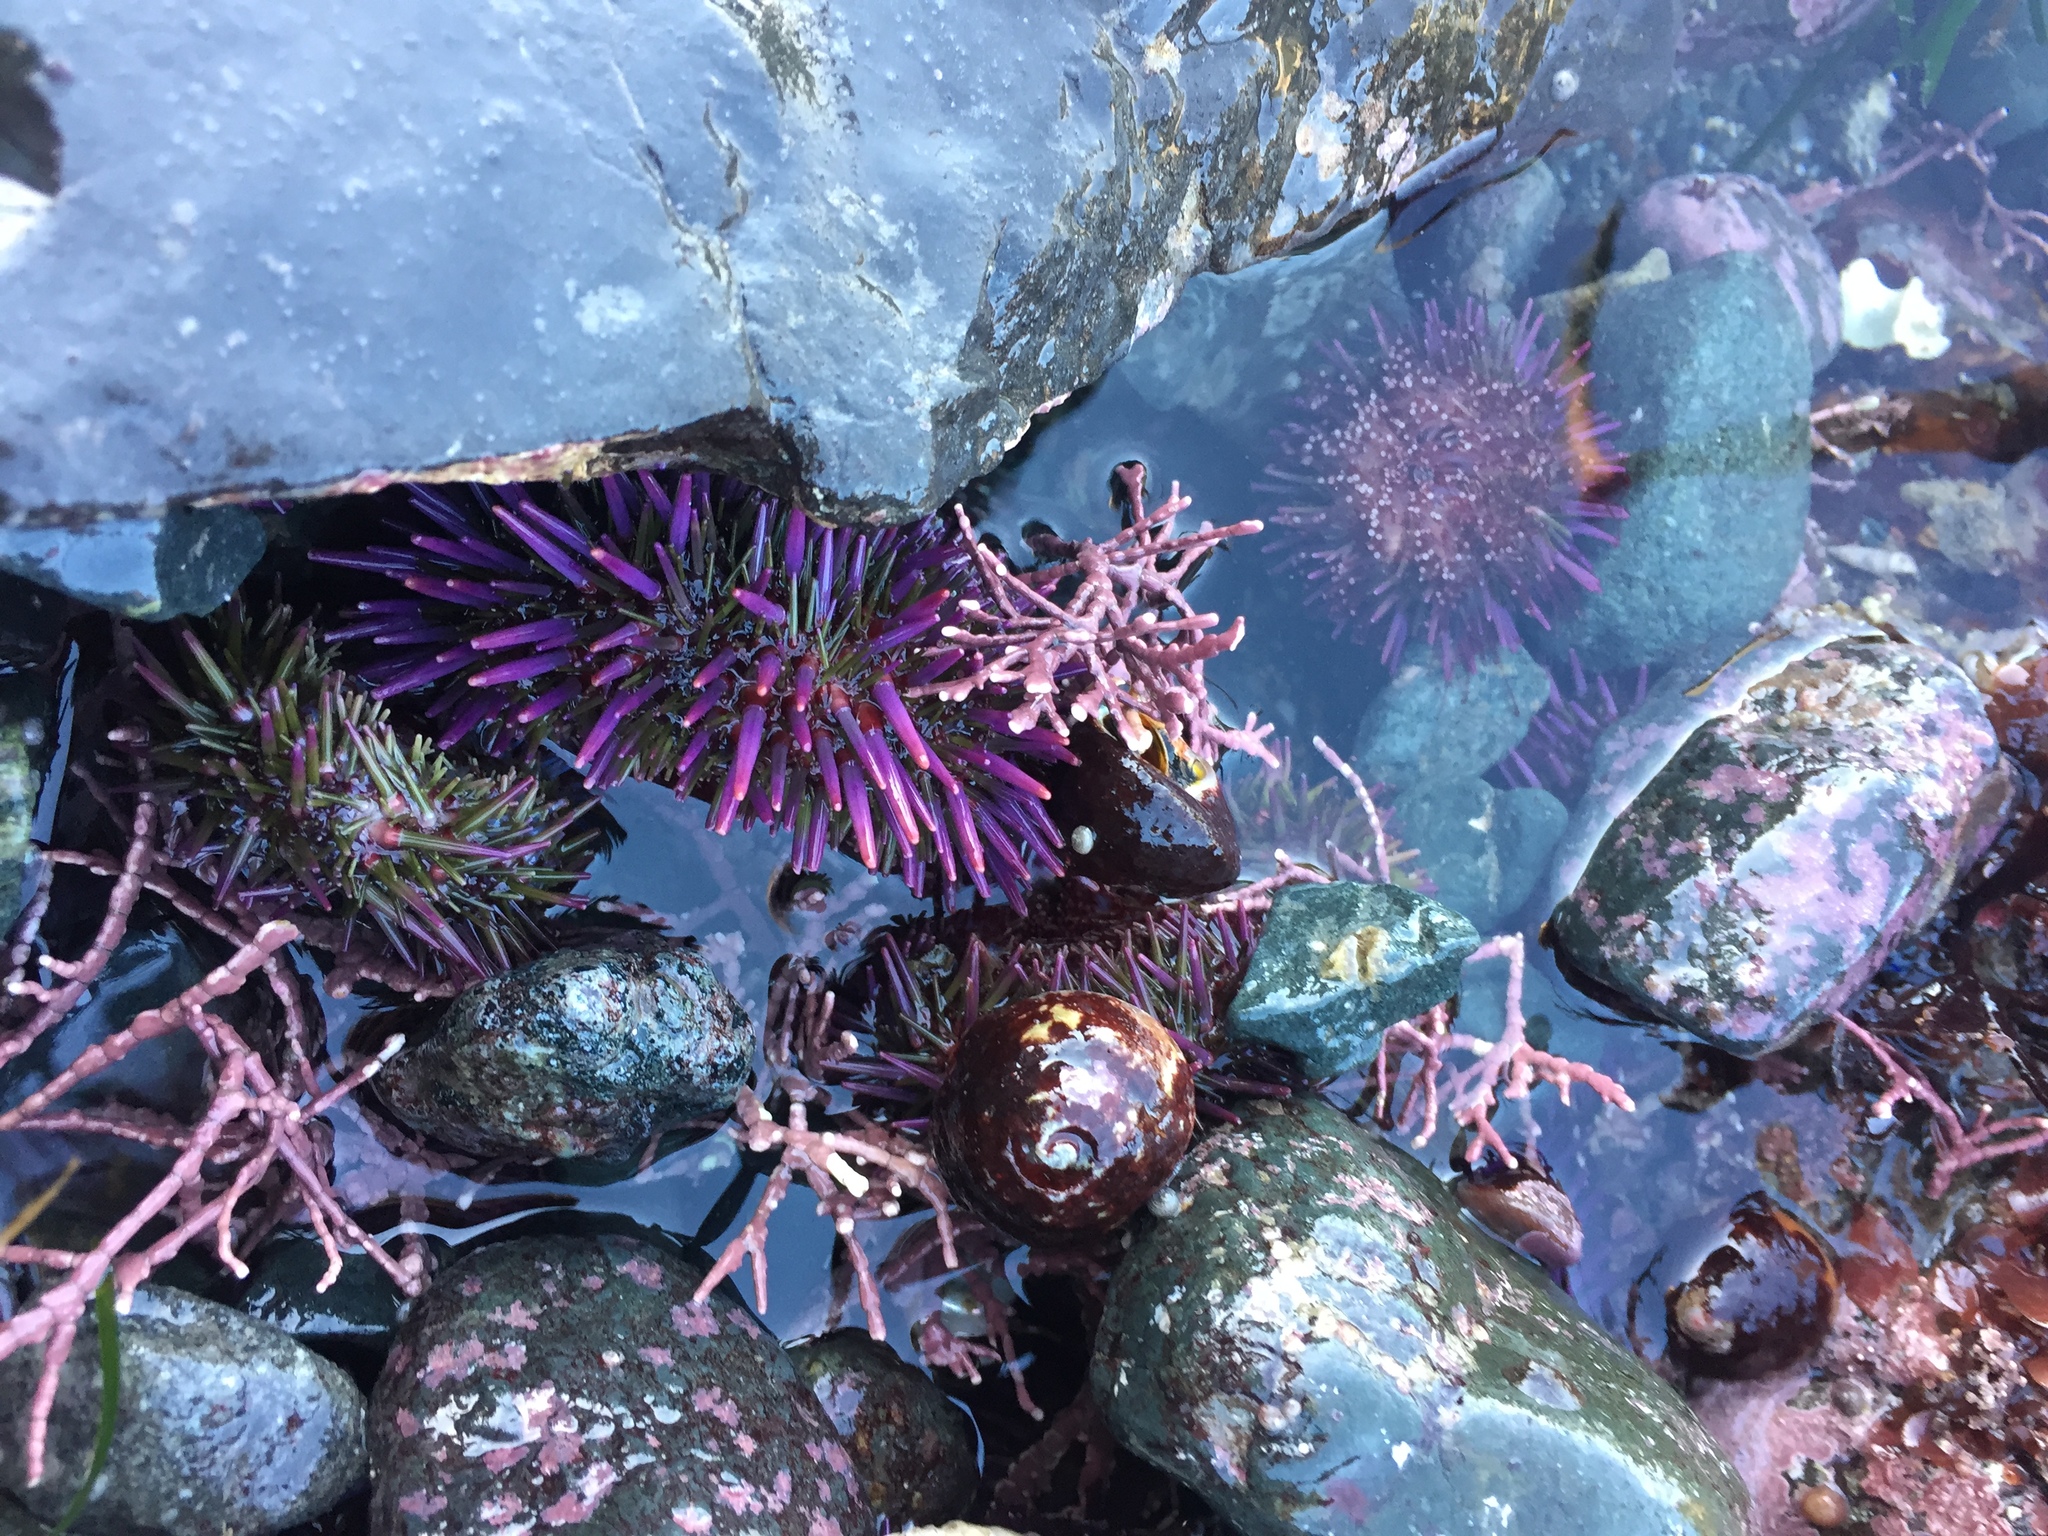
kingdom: Animalia
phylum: Echinodermata
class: Echinoidea
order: Camarodonta
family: Strongylocentrotidae
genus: Strongylocentrotus
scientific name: Strongylocentrotus purpuratus
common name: Purple sea urchin
